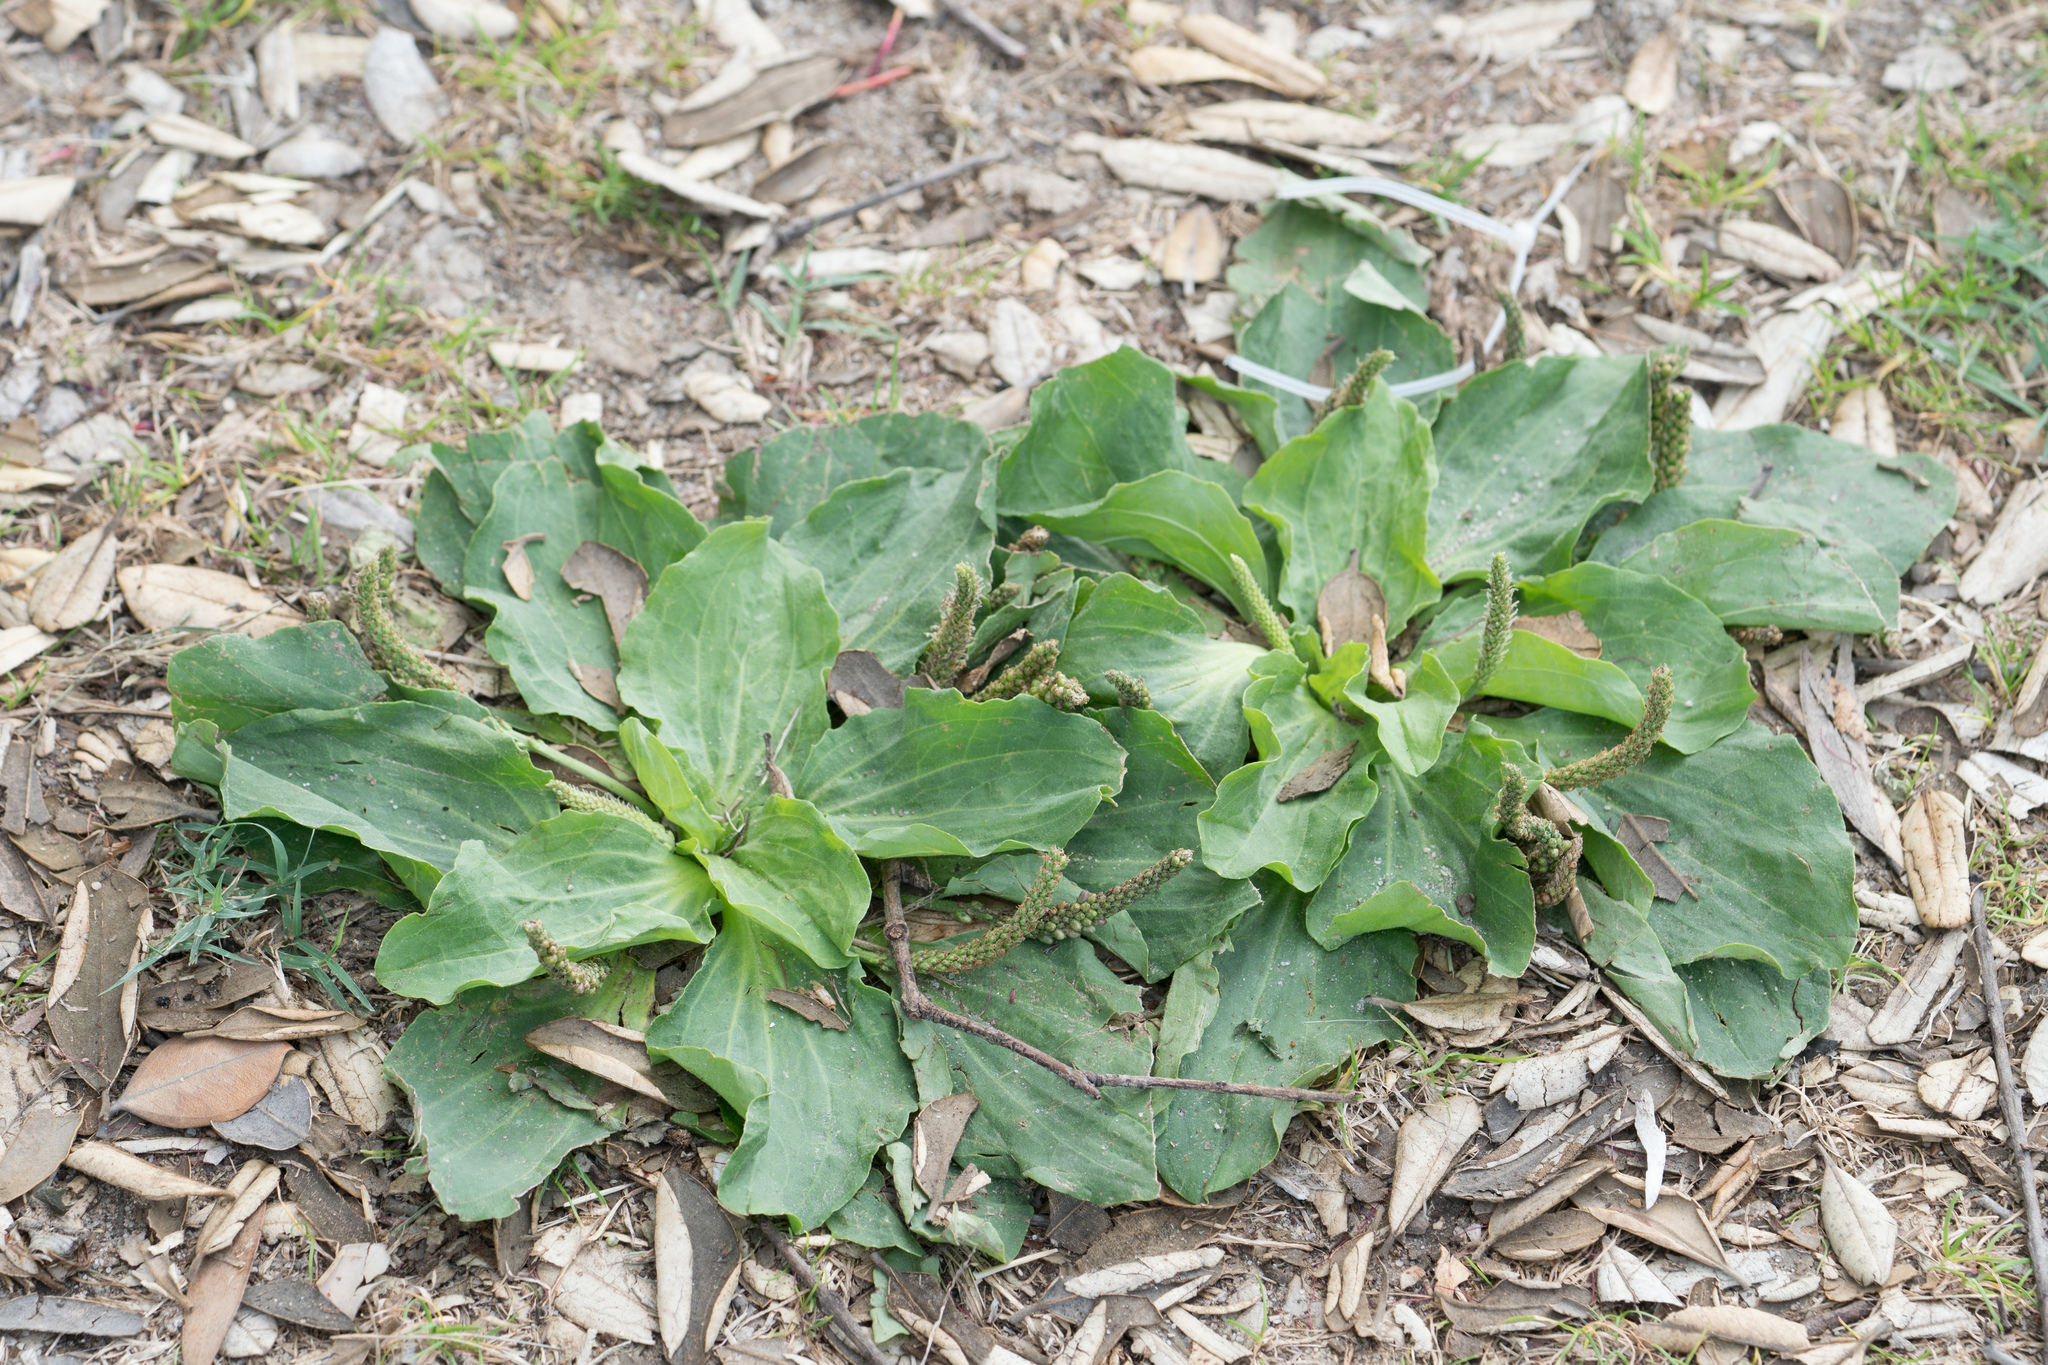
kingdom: Plantae
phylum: Tracheophyta
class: Magnoliopsida
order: Lamiales
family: Plantaginaceae
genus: Plantago
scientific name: Plantago major
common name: Common plantain
